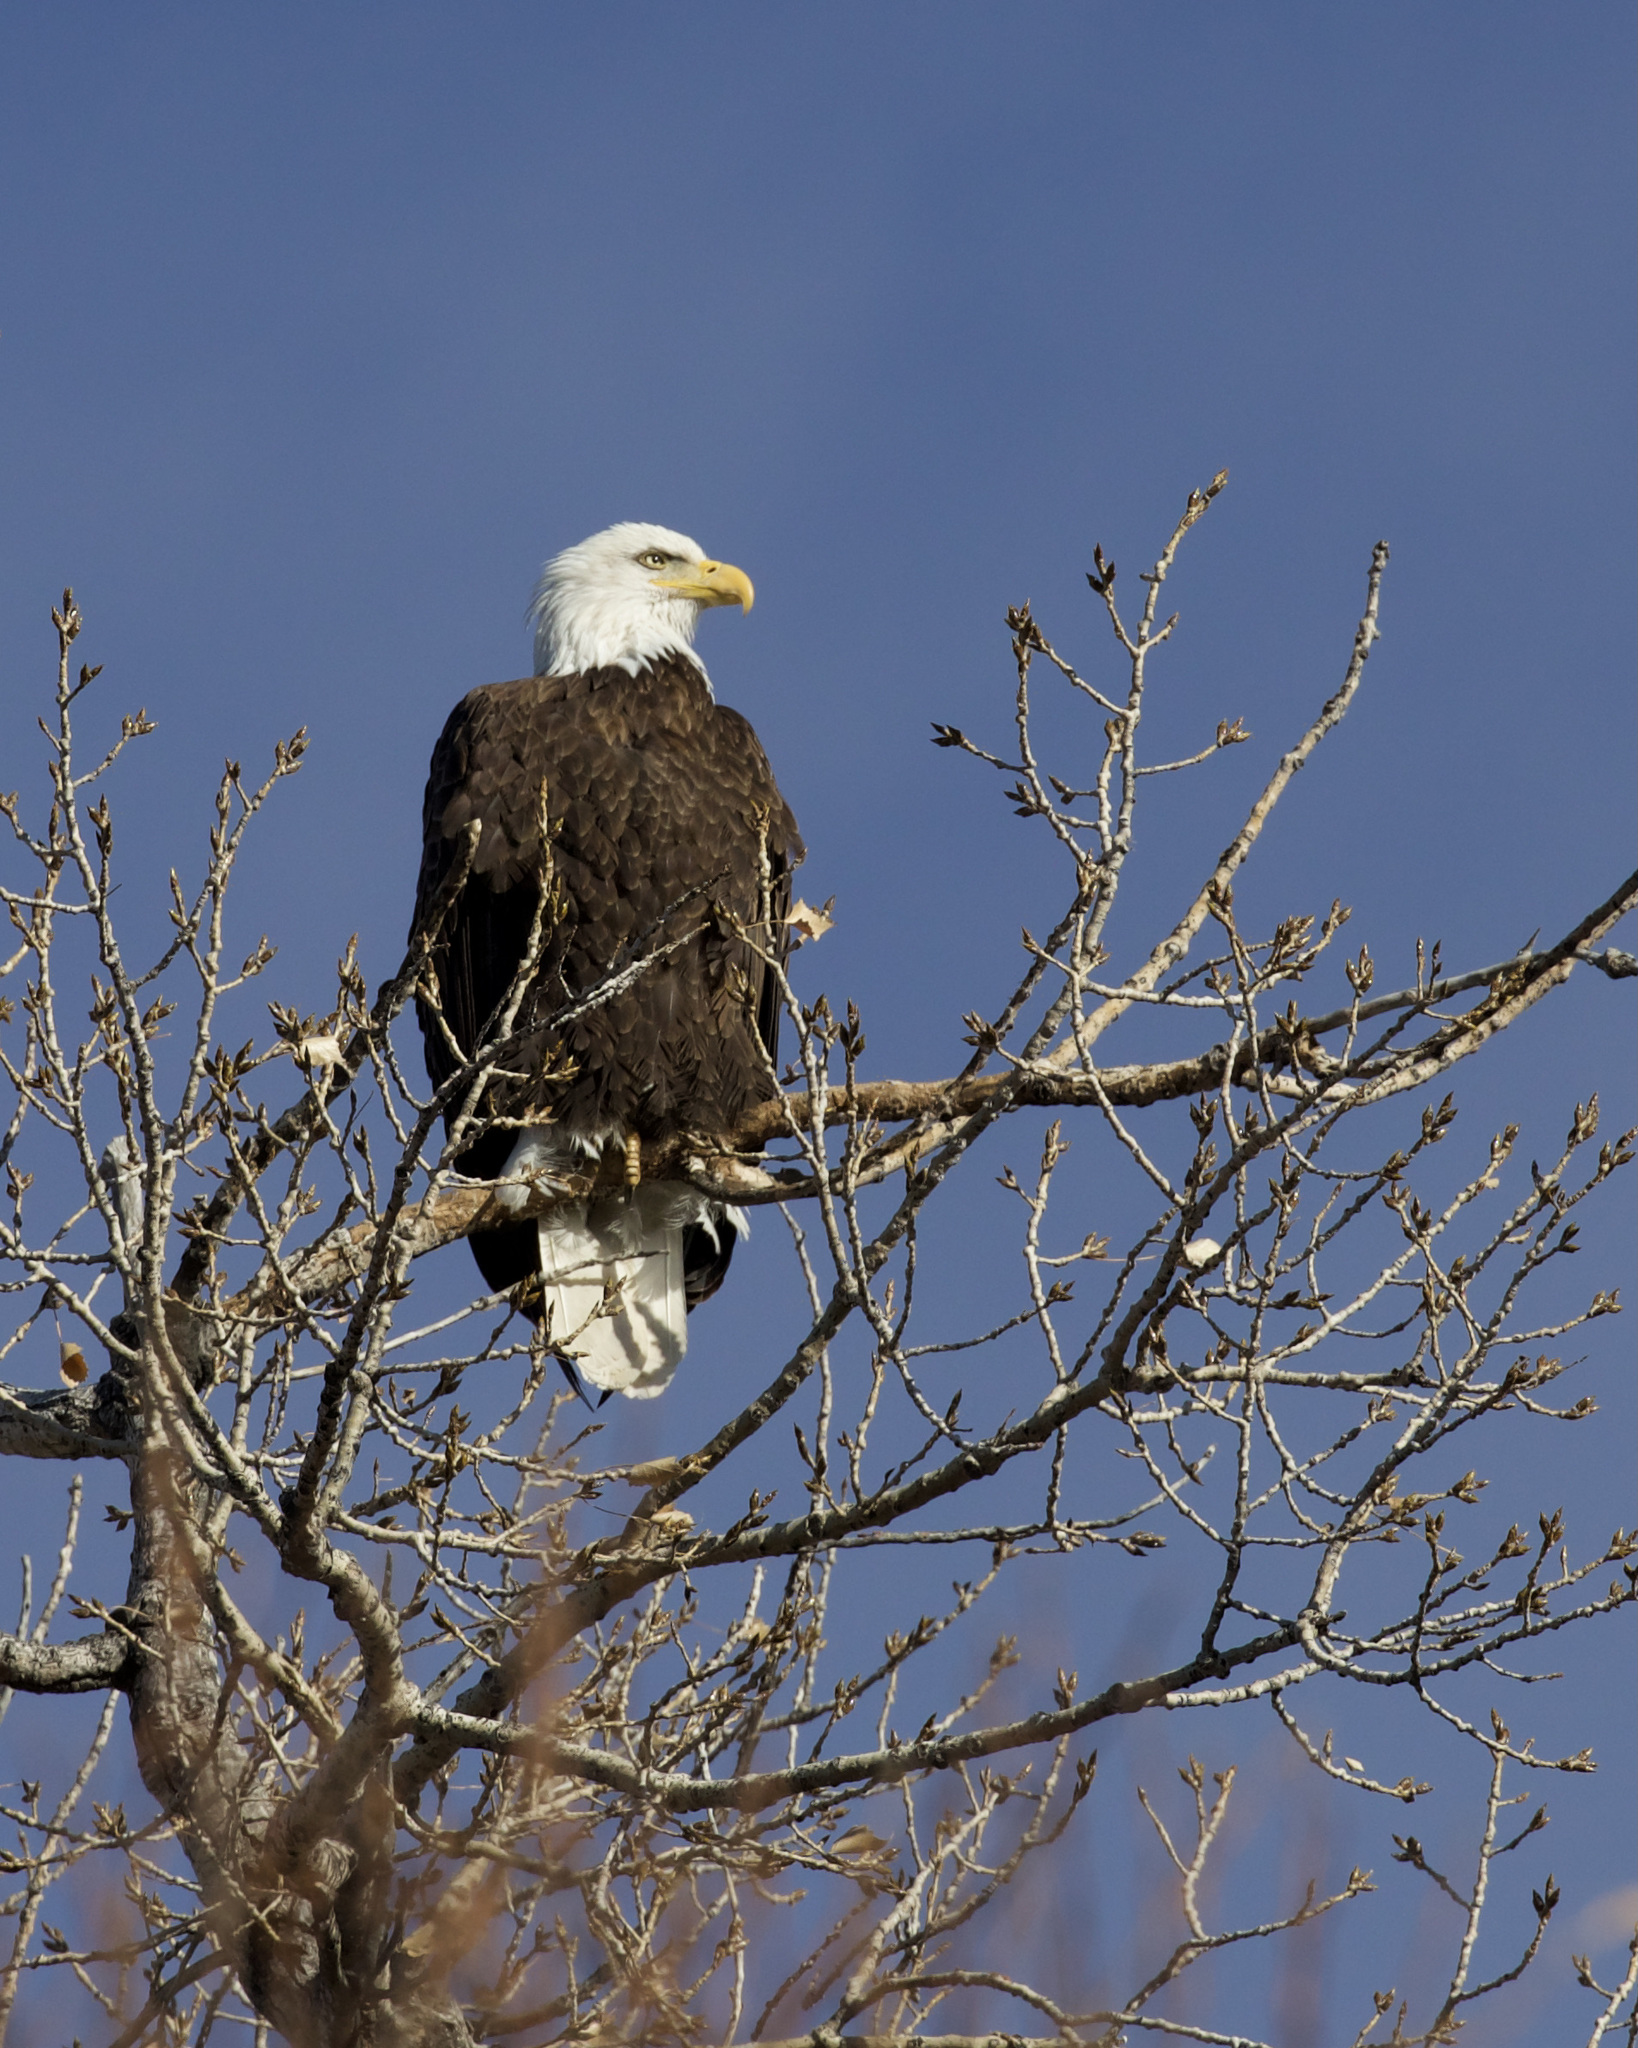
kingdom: Animalia
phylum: Chordata
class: Aves
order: Accipitriformes
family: Accipitridae
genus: Haliaeetus
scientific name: Haliaeetus leucocephalus
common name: Bald eagle
